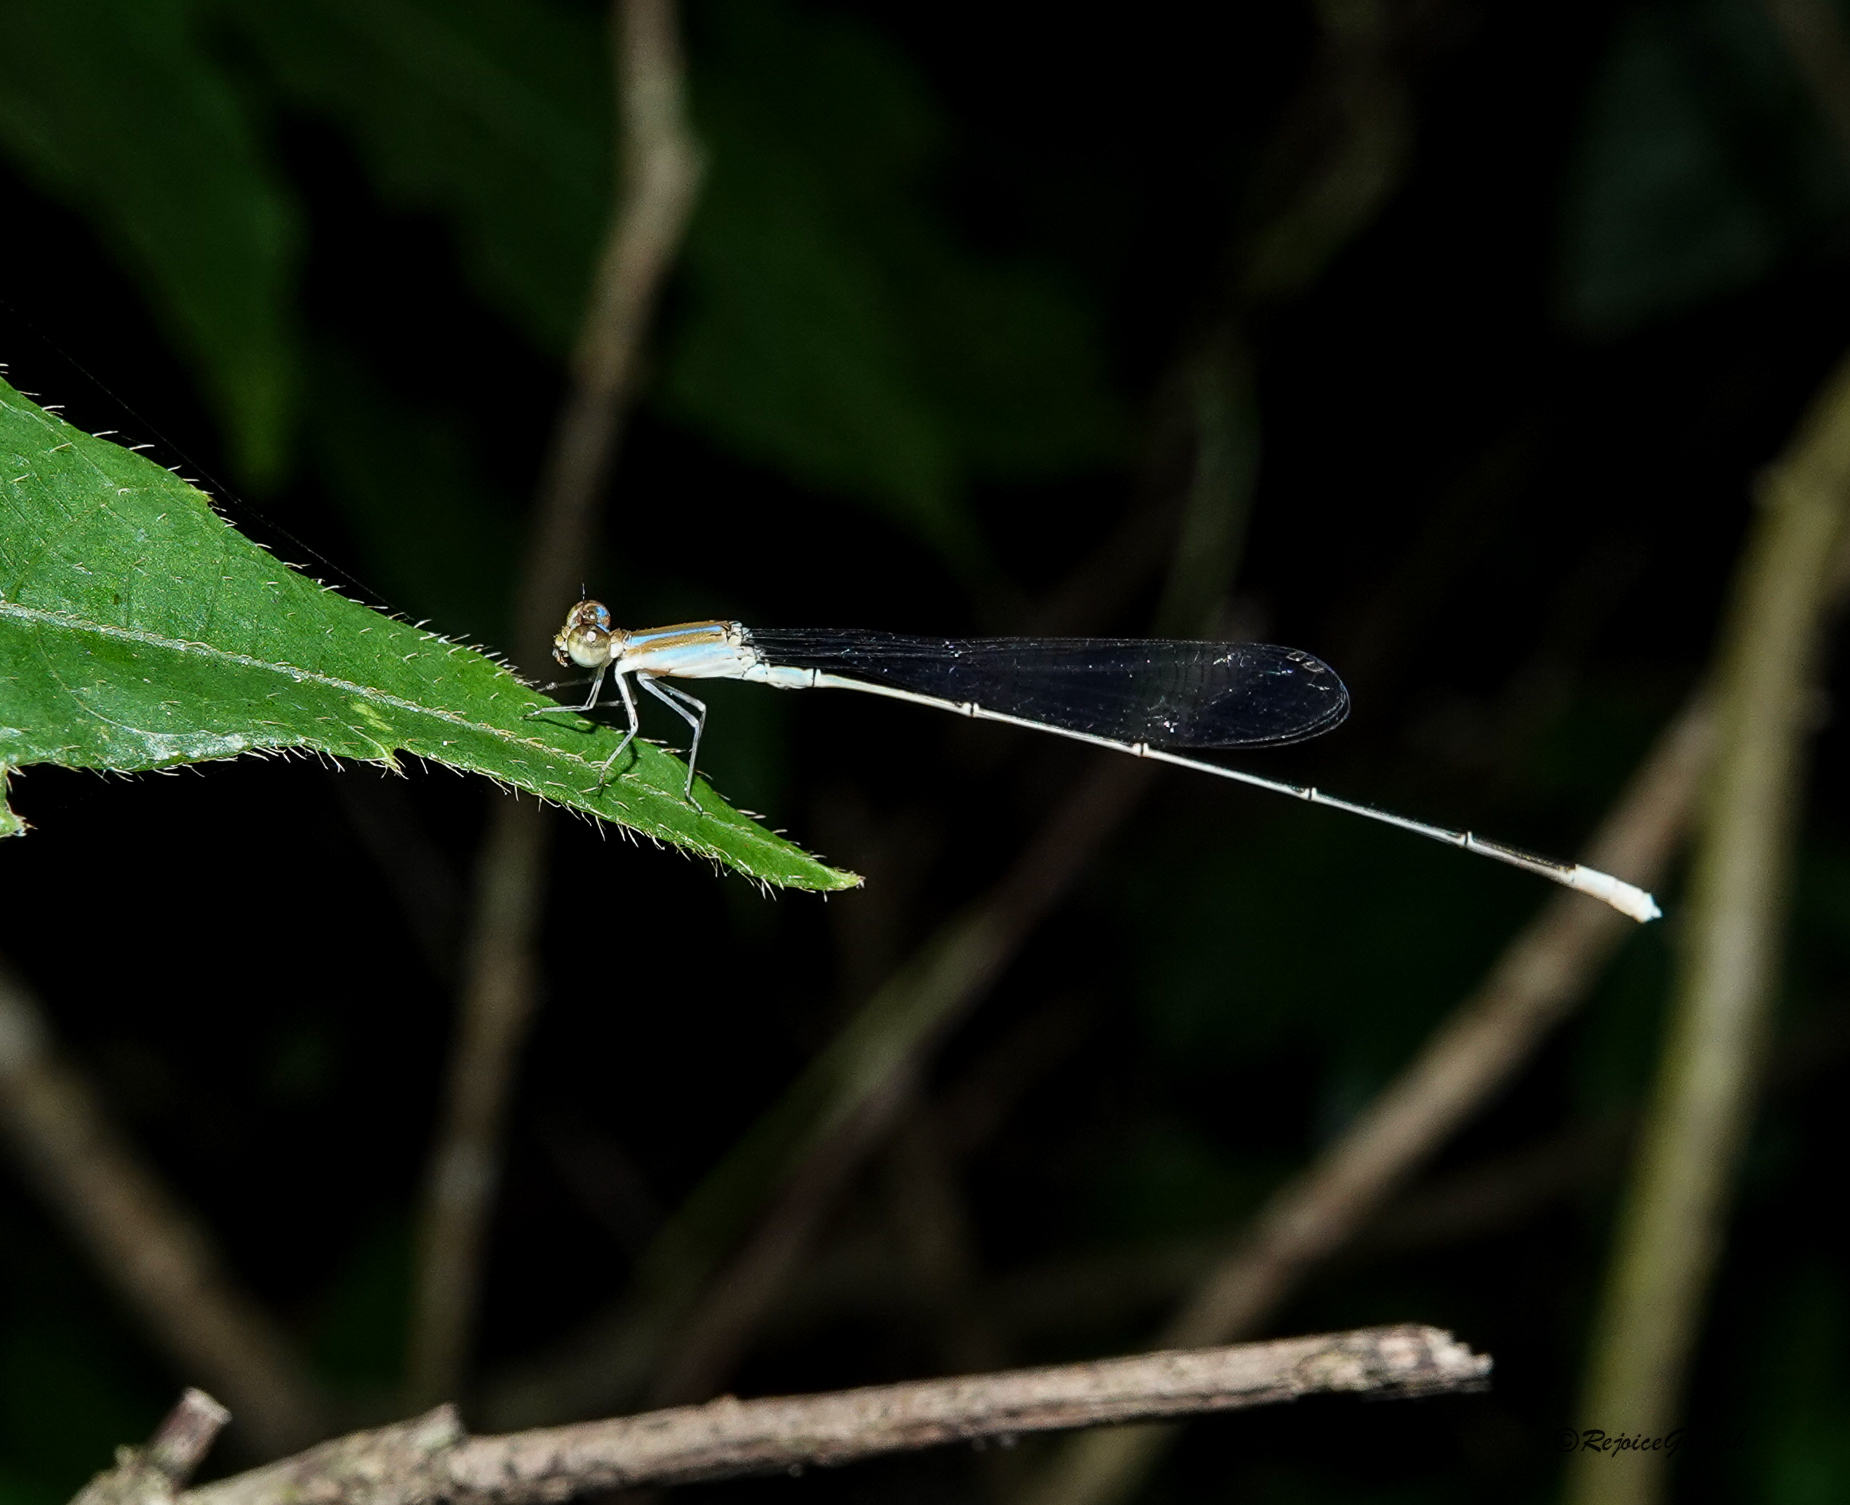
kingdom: Animalia
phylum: Arthropoda
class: Insecta
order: Odonata
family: Coenagrionidae
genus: Aciagrion
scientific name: Aciagrion pallidum
